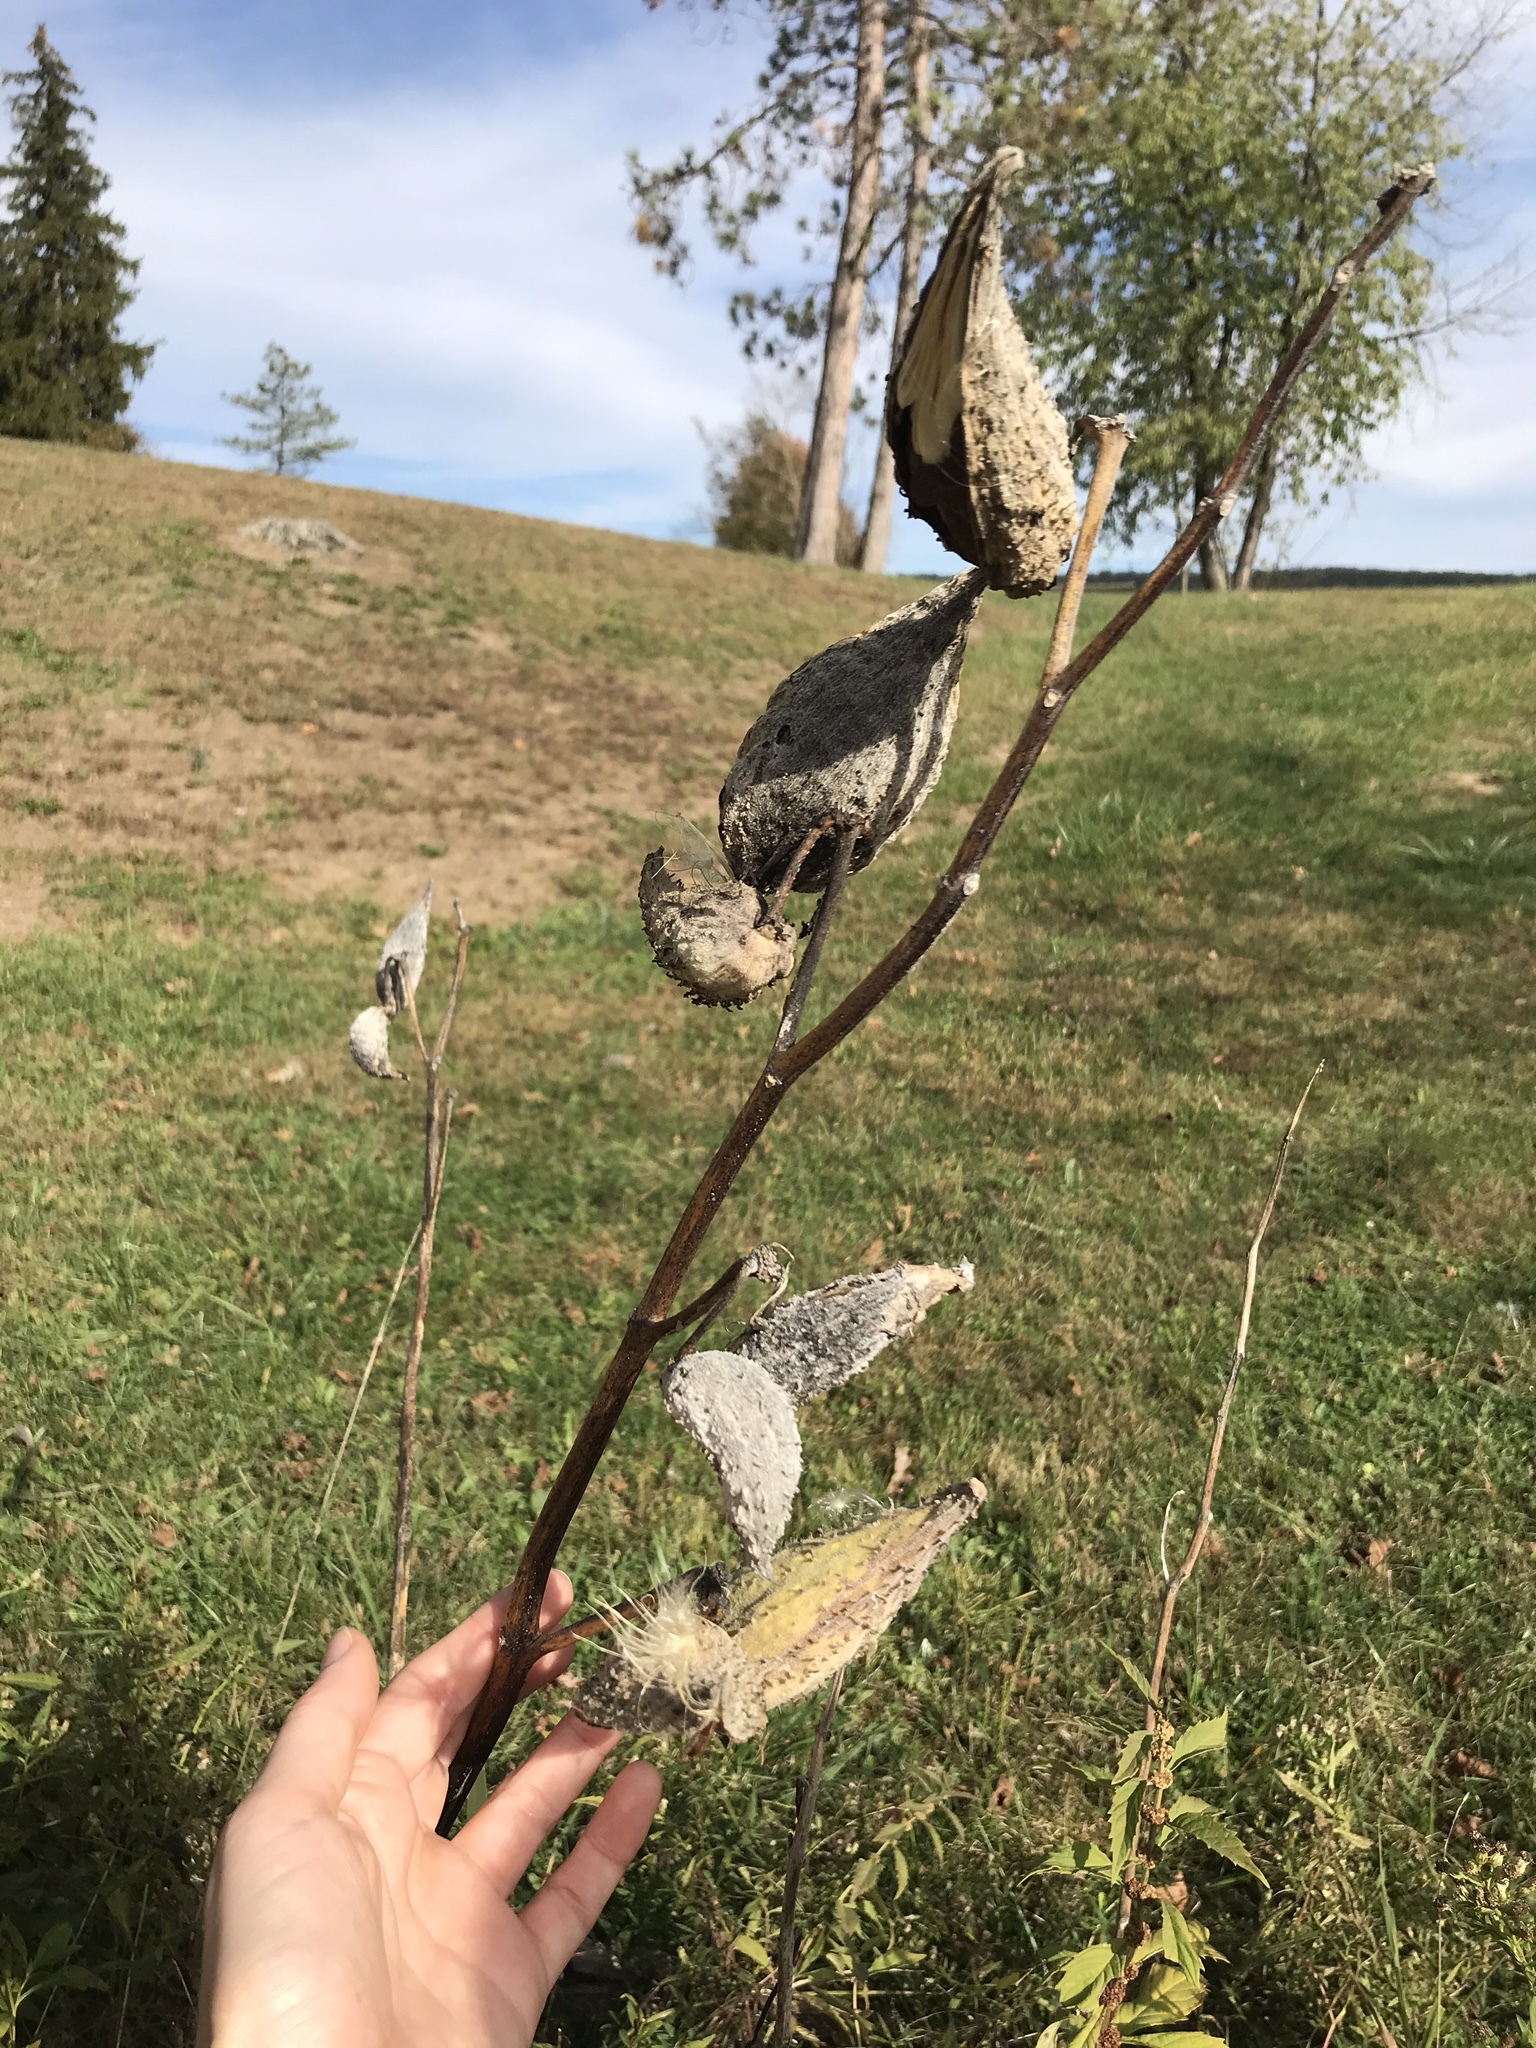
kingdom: Plantae
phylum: Tracheophyta
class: Magnoliopsida
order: Gentianales
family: Apocynaceae
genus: Asclepias
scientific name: Asclepias syriaca
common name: Common milkweed
